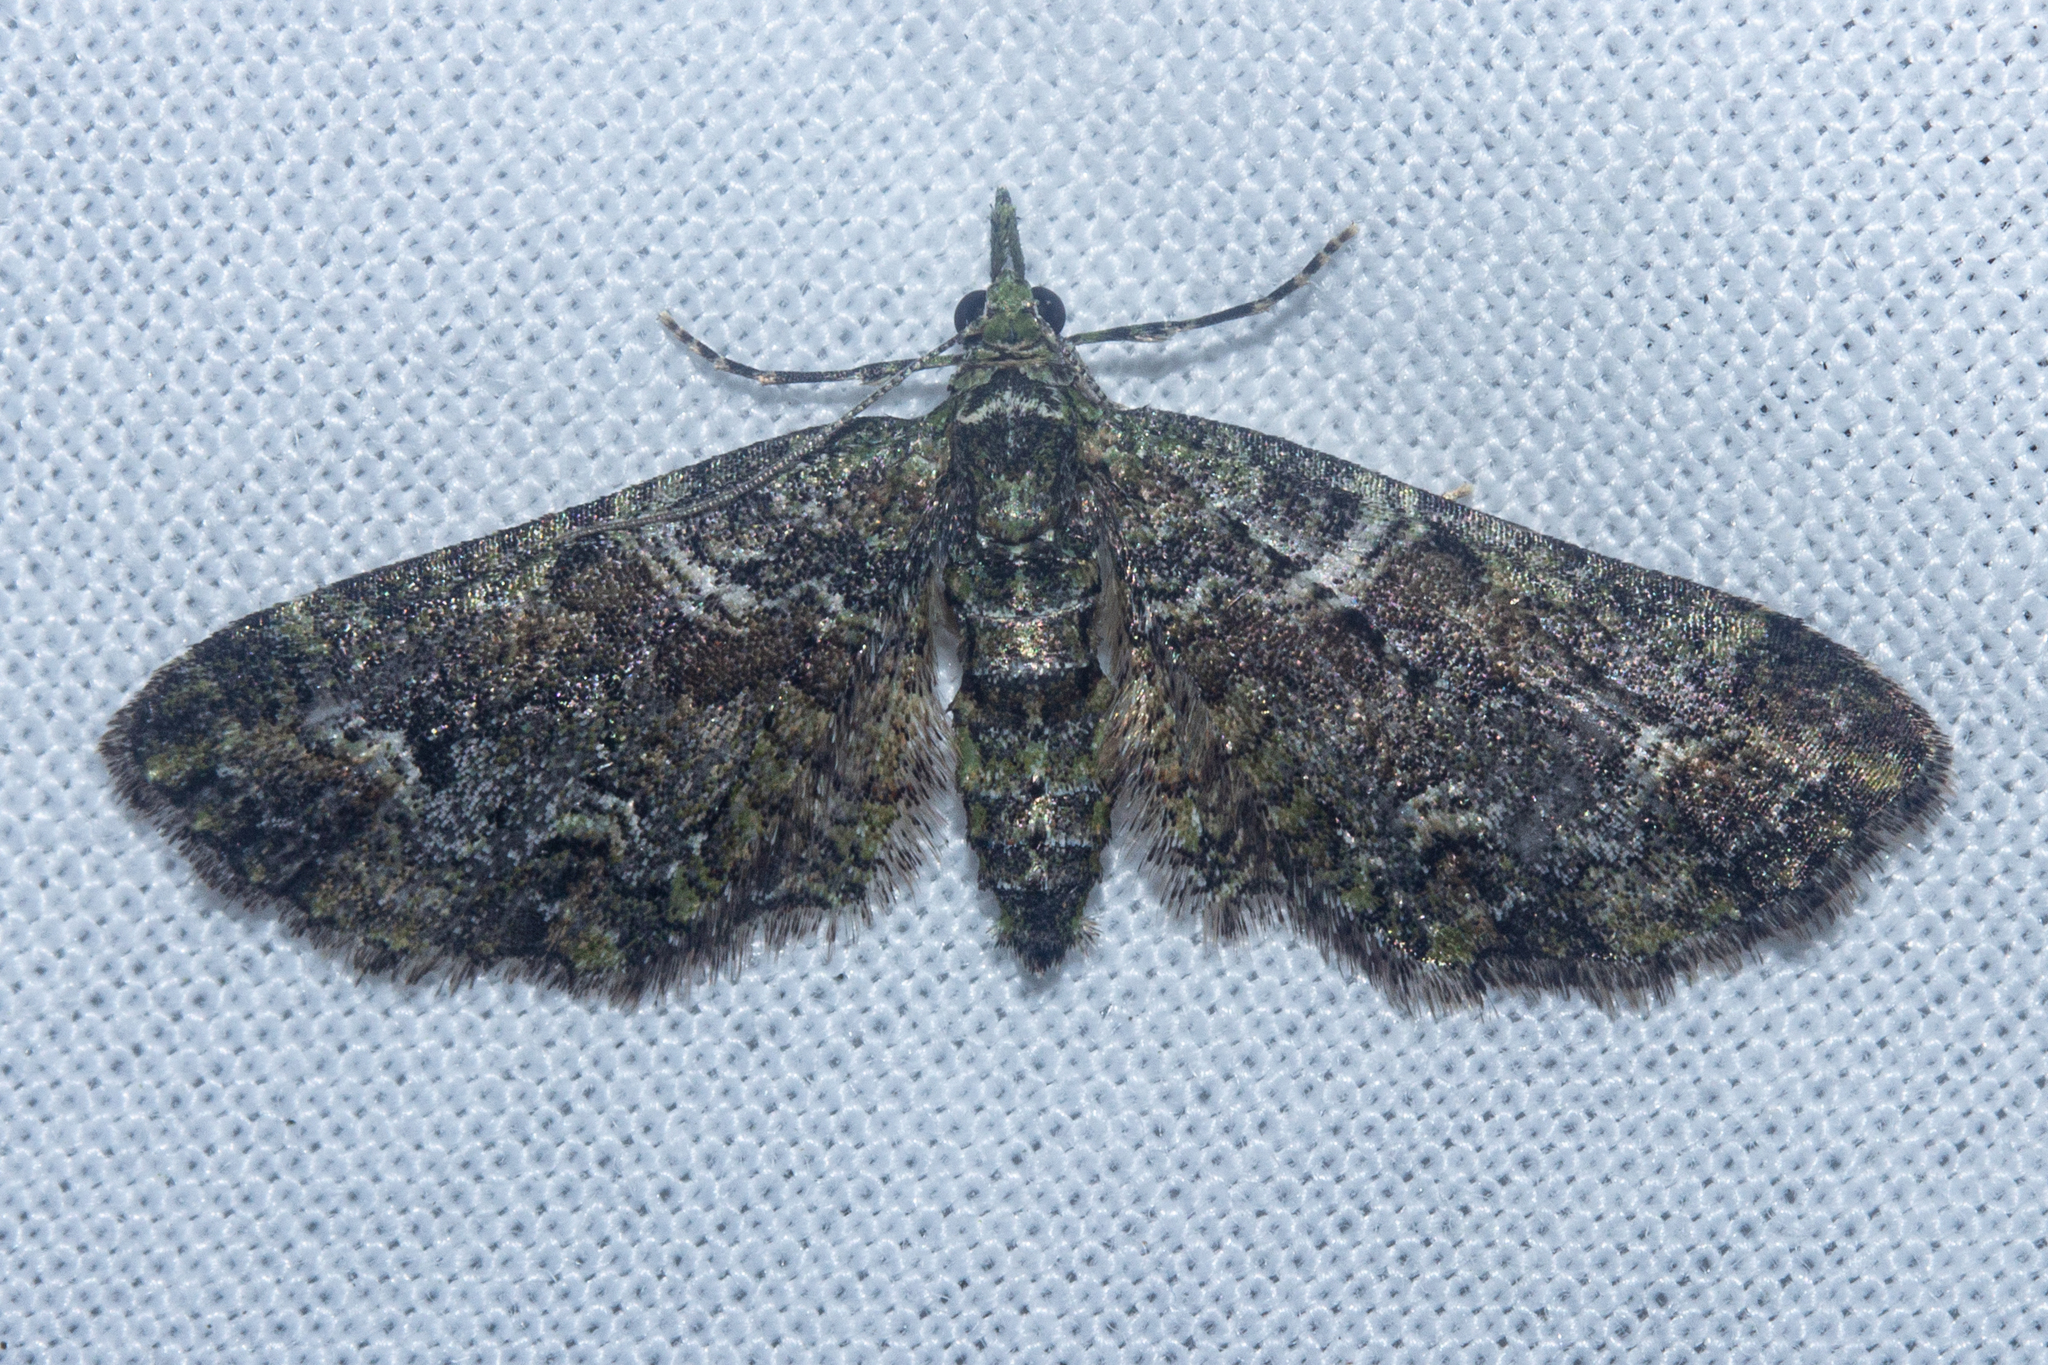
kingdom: Animalia
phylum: Arthropoda
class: Insecta
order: Lepidoptera
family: Geometridae
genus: Idaea
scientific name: Idaea mutanda
